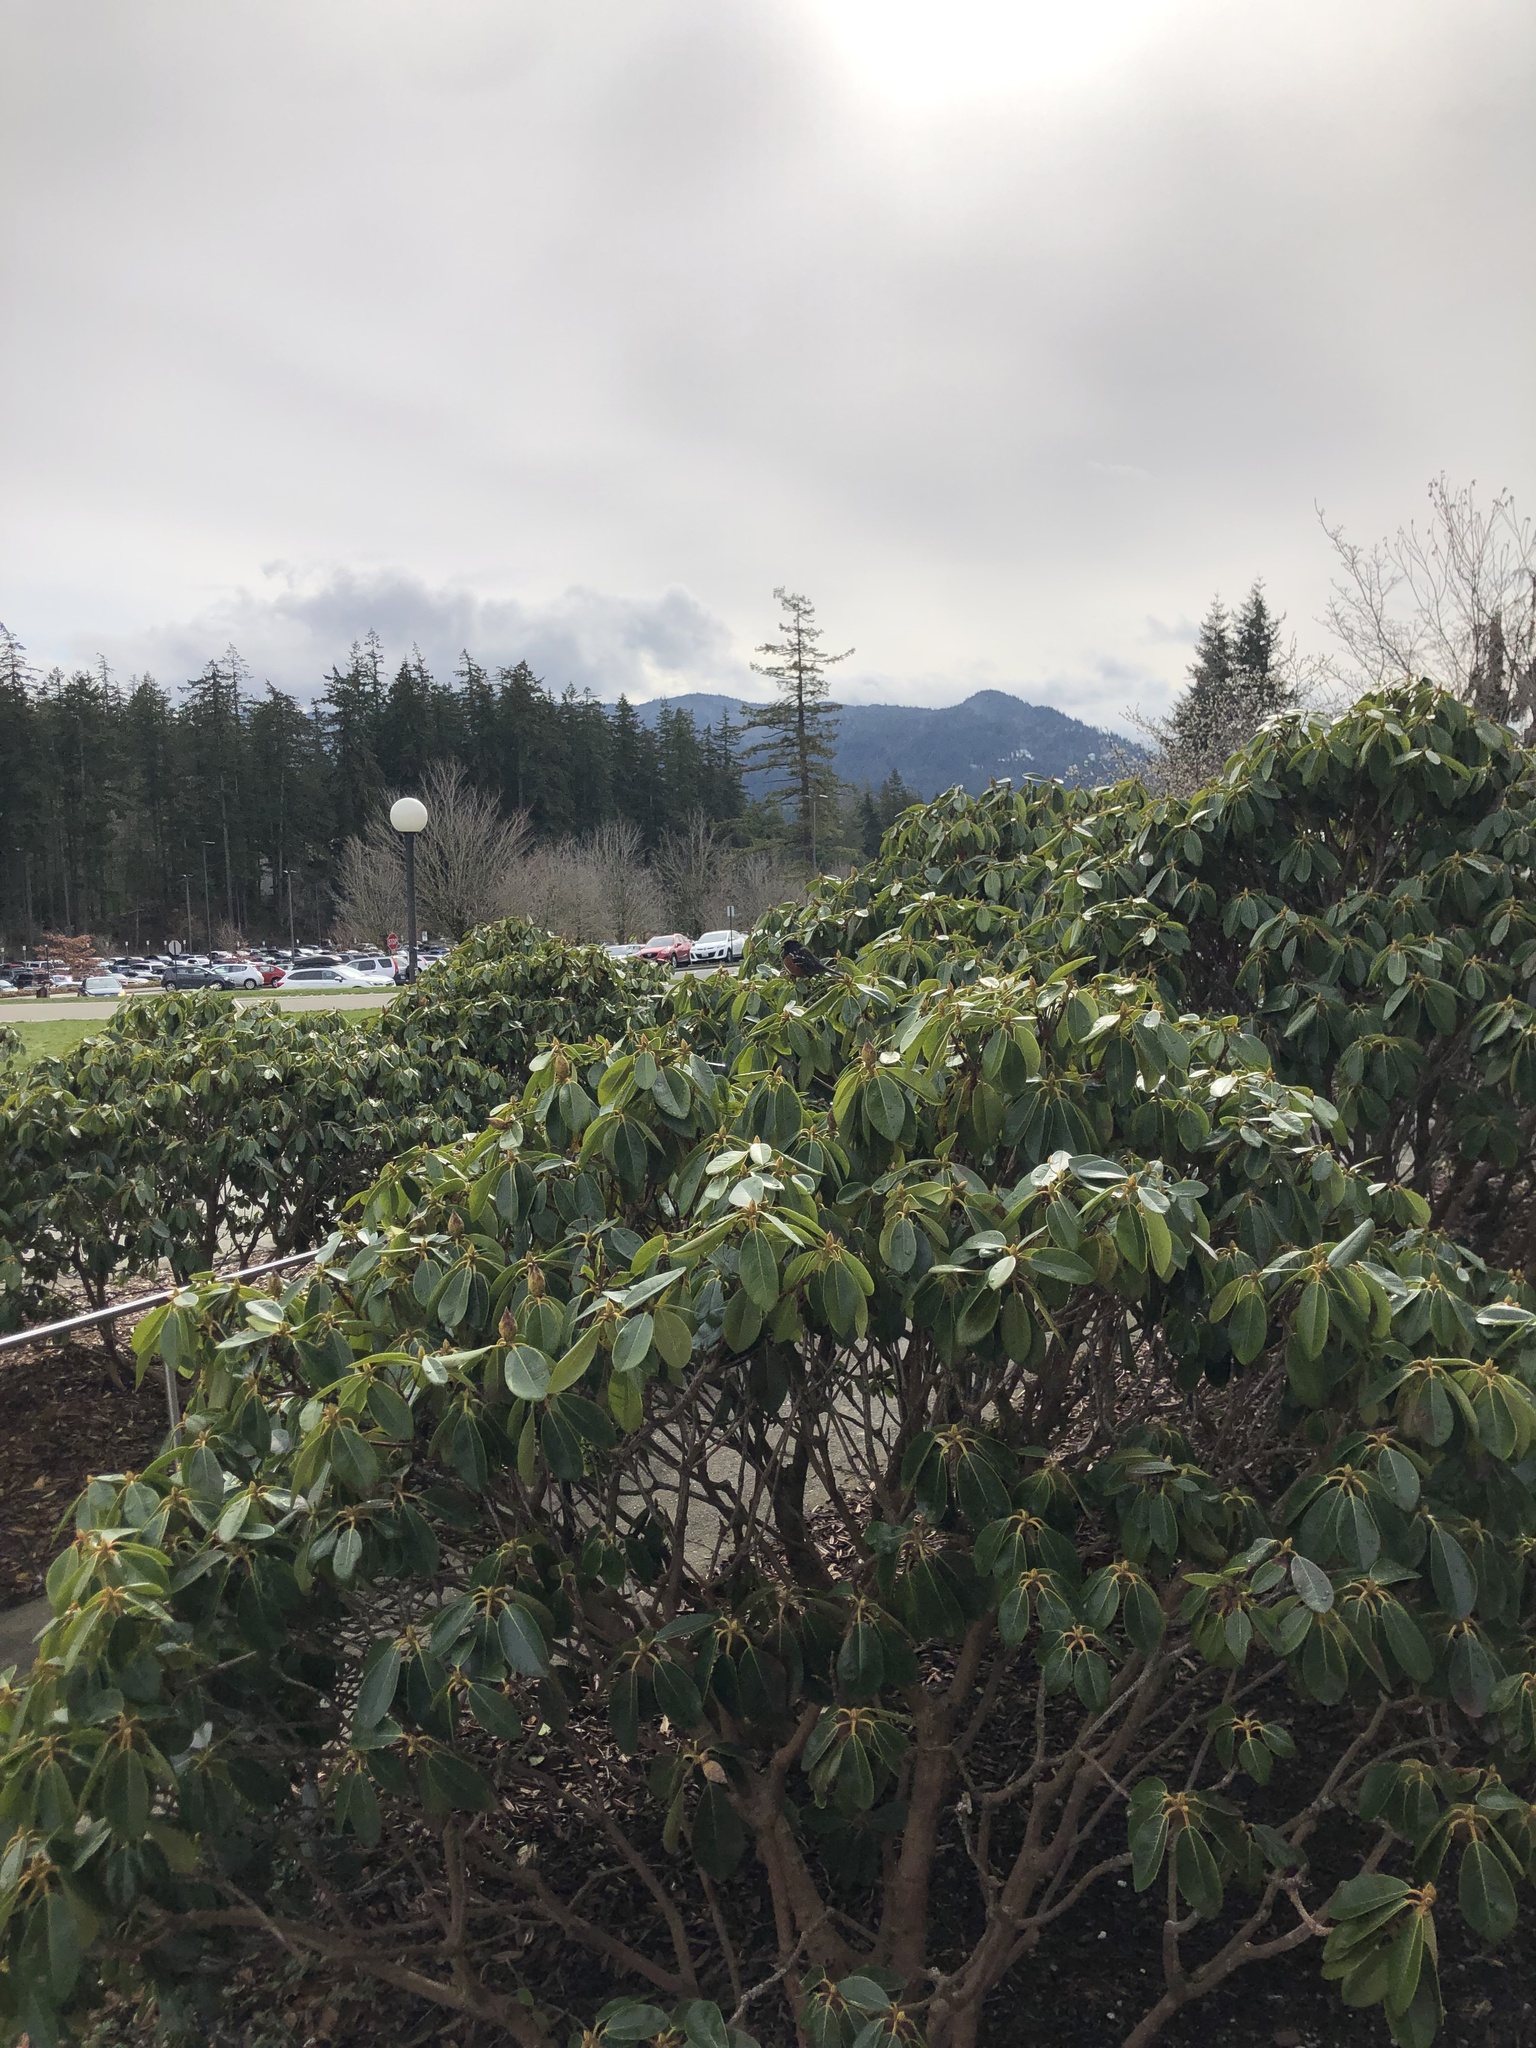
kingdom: Animalia
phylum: Chordata
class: Aves
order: Passeriformes
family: Passerellidae
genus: Pipilo
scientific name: Pipilo maculatus
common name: Spotted towhee
